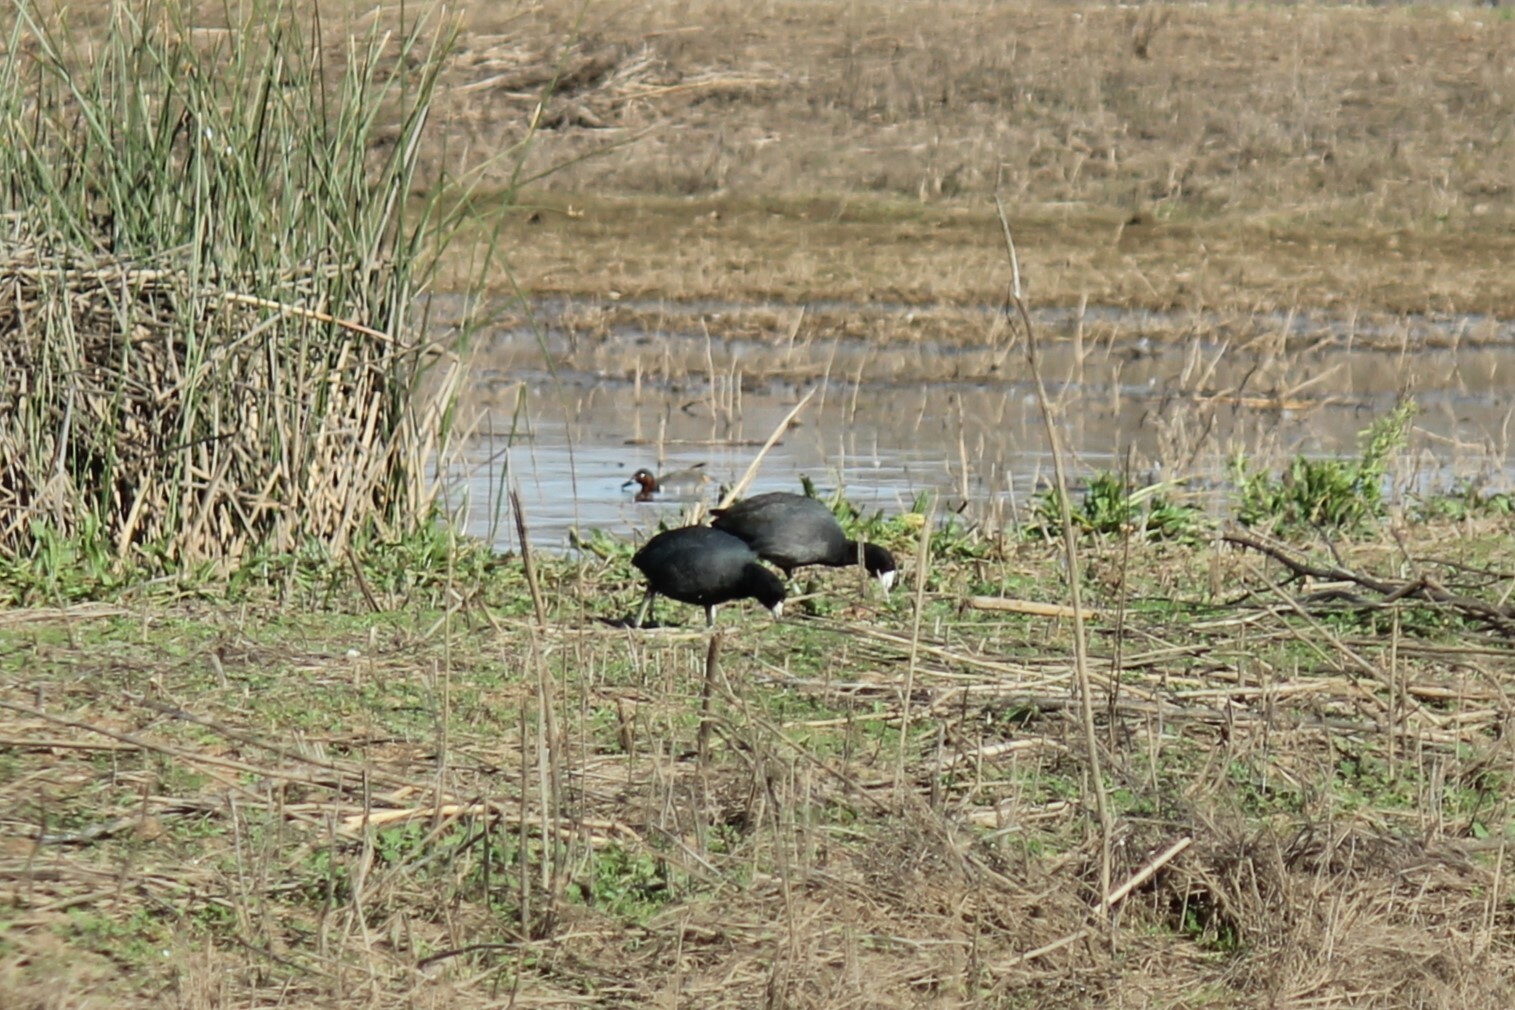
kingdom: Animalia
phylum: Chordata
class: Aves
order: Gruiformes
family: Rallidae
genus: Fulica
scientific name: Fulica americana
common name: American coot
